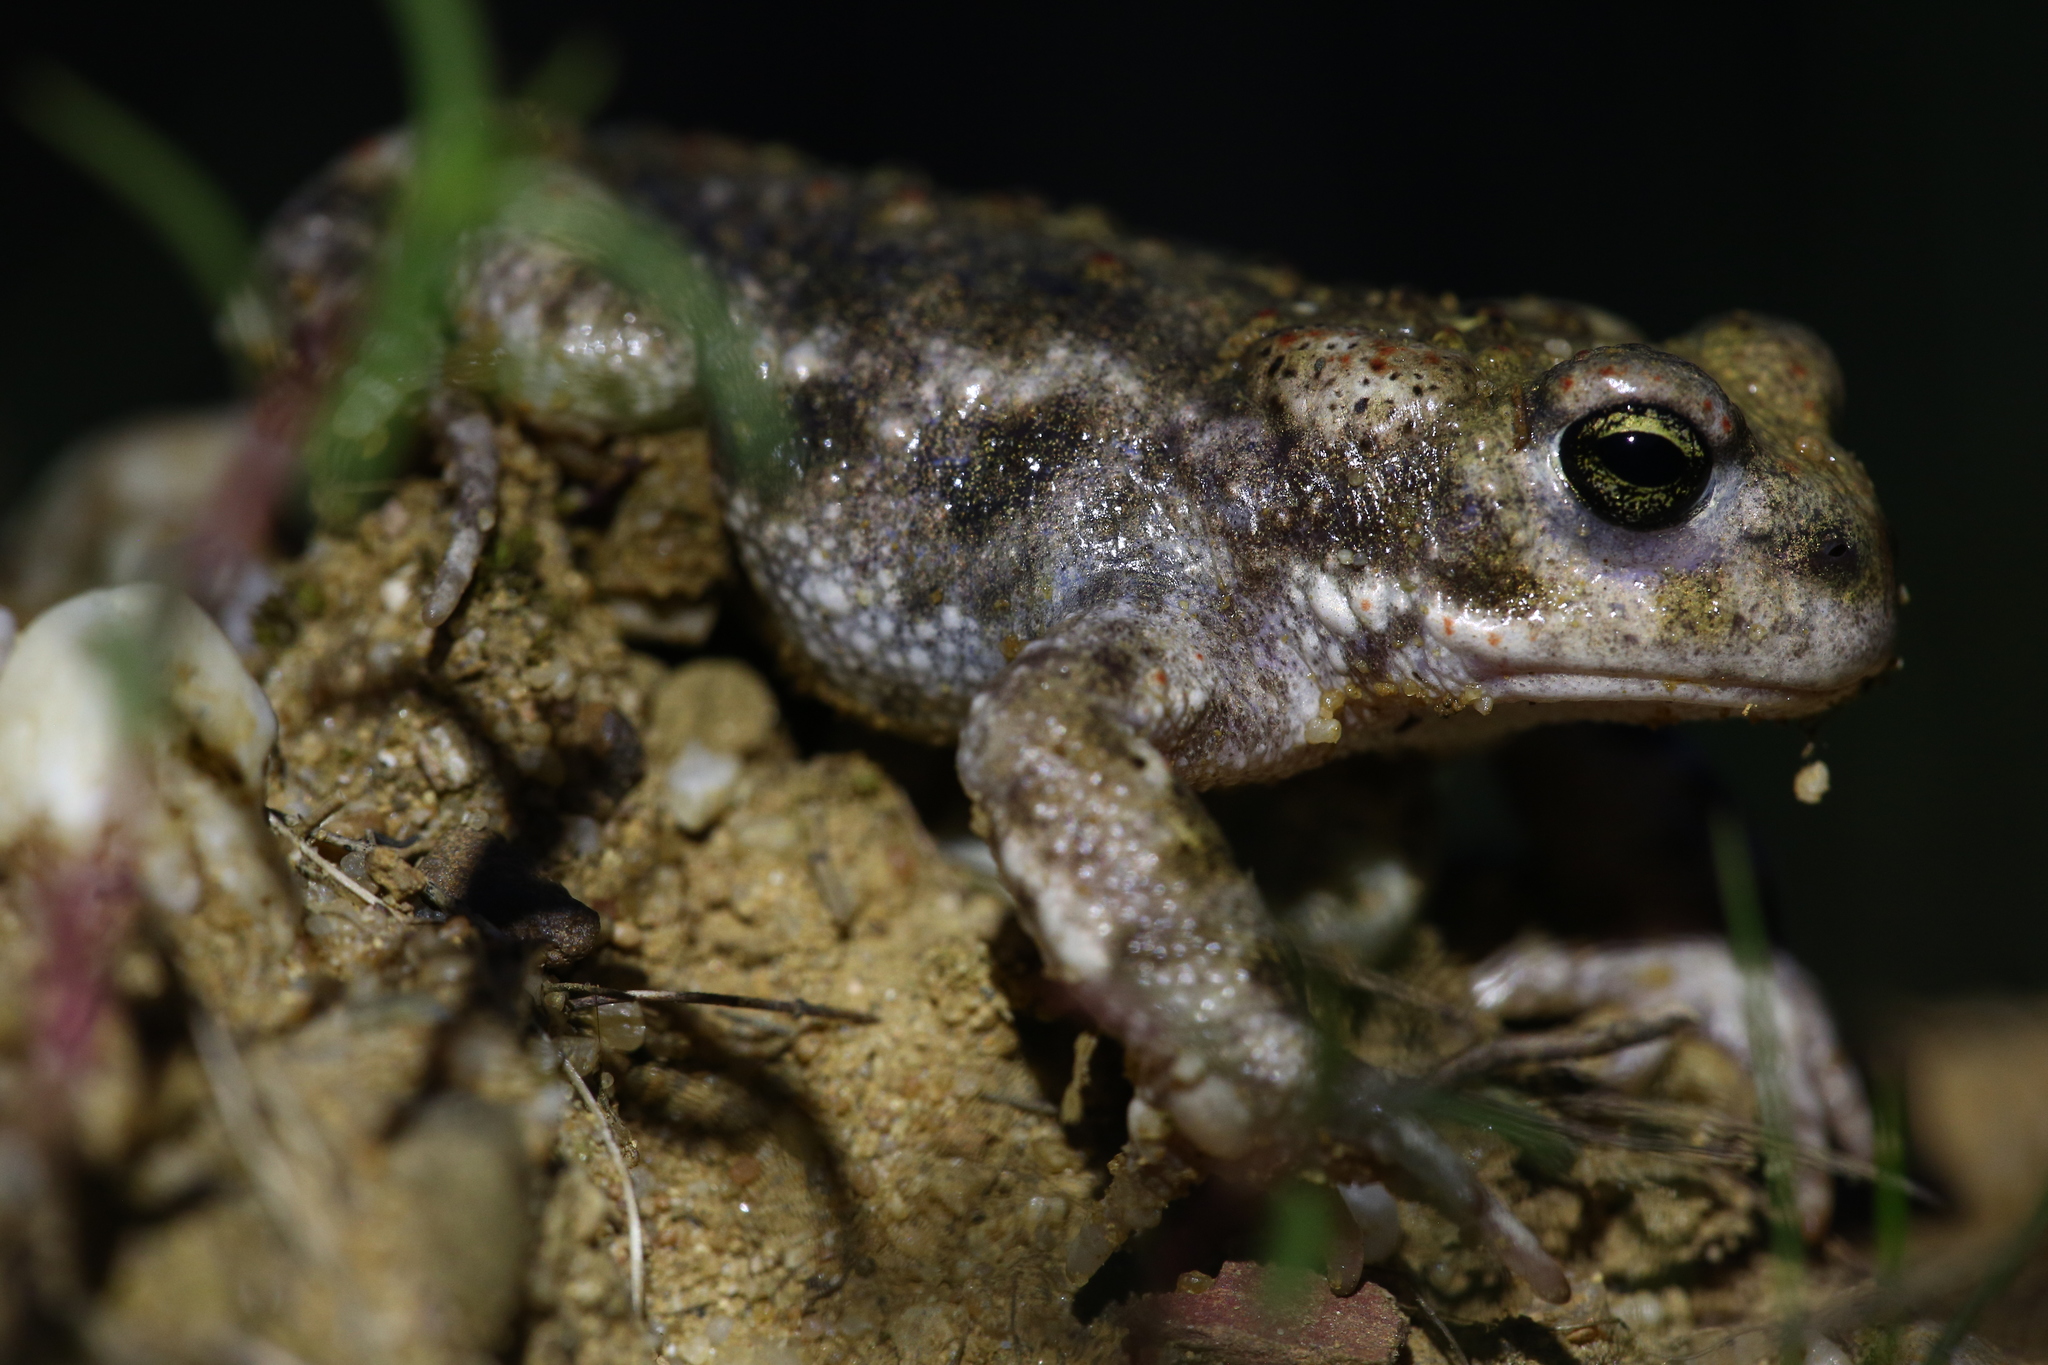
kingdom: Animalia
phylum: Chordata
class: Amphibia
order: Anura
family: Bufonidae
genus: Epidalea
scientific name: Epidalea calamita
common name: Natterjack toad
